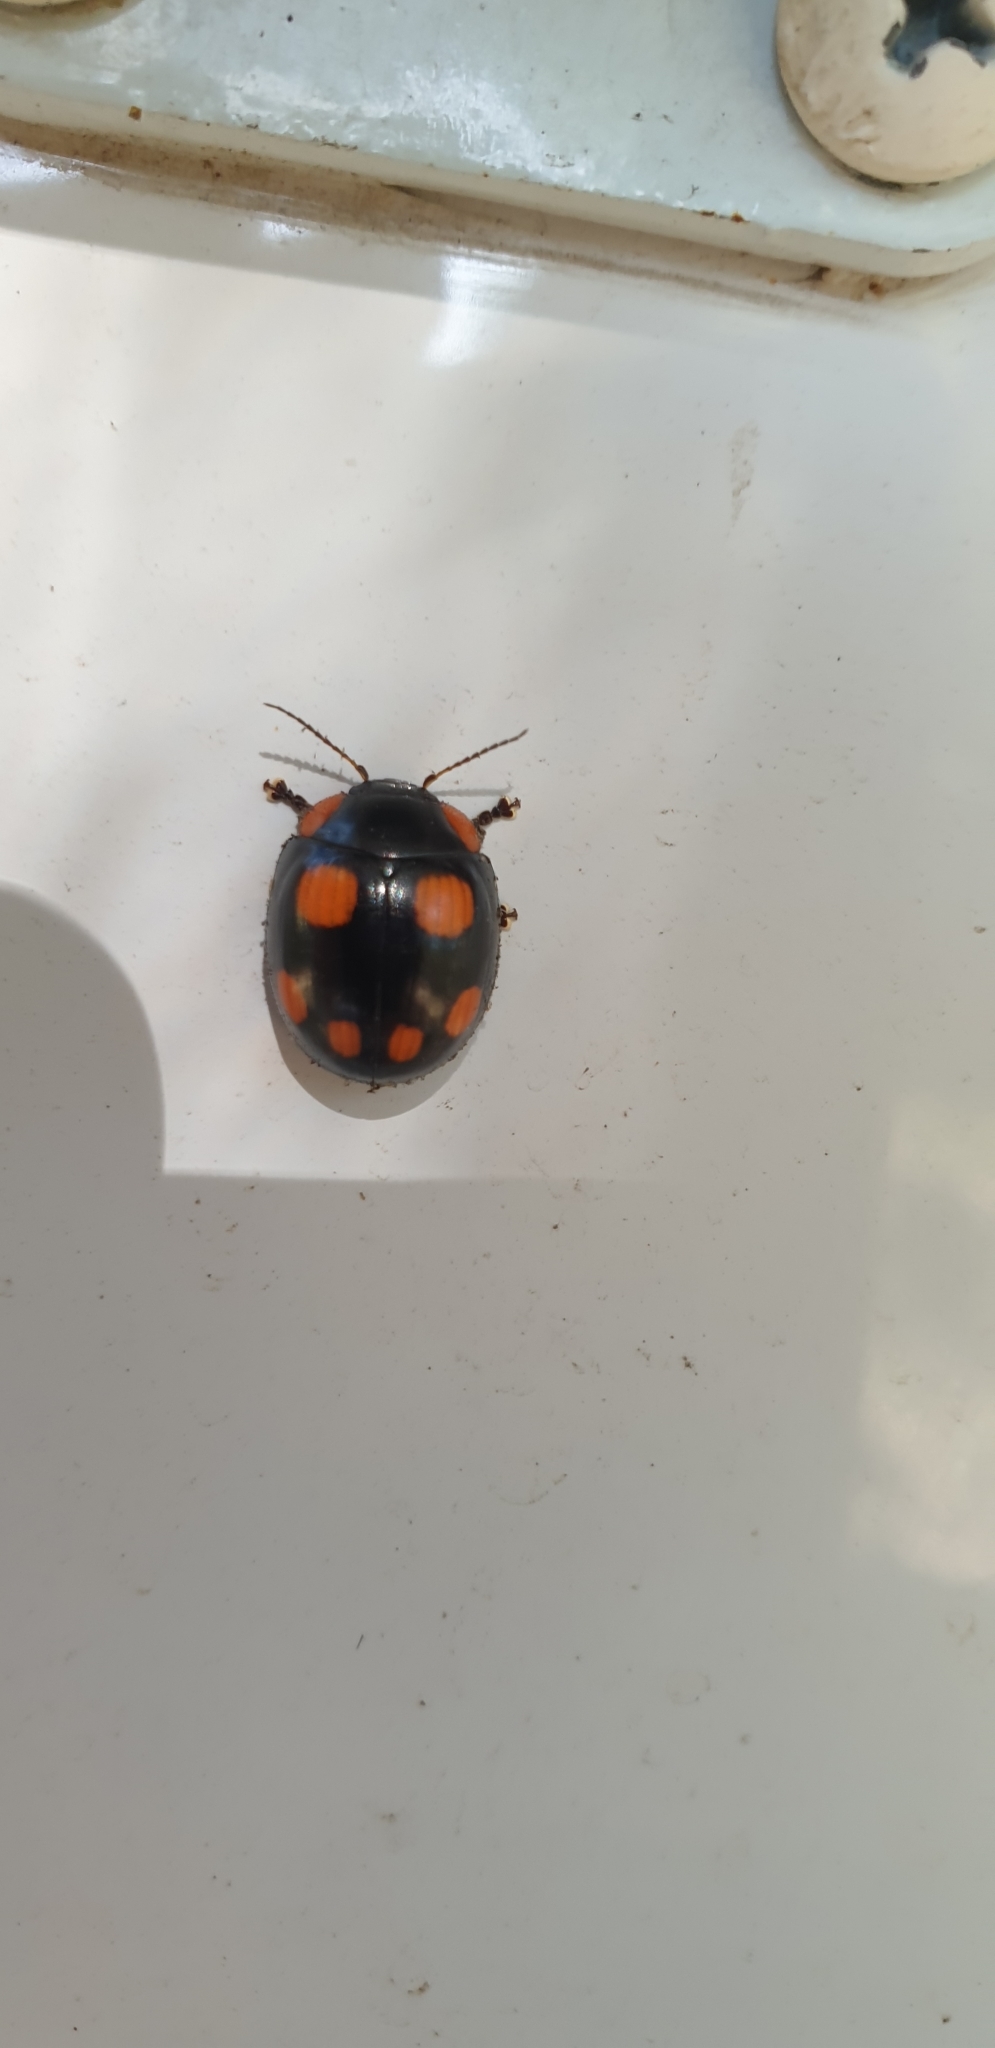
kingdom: Animalia
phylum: Arthropoda
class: Insecta
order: Coleoptera
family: Chrysomelidae
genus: Paropsisterna
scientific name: Paropsisterna
